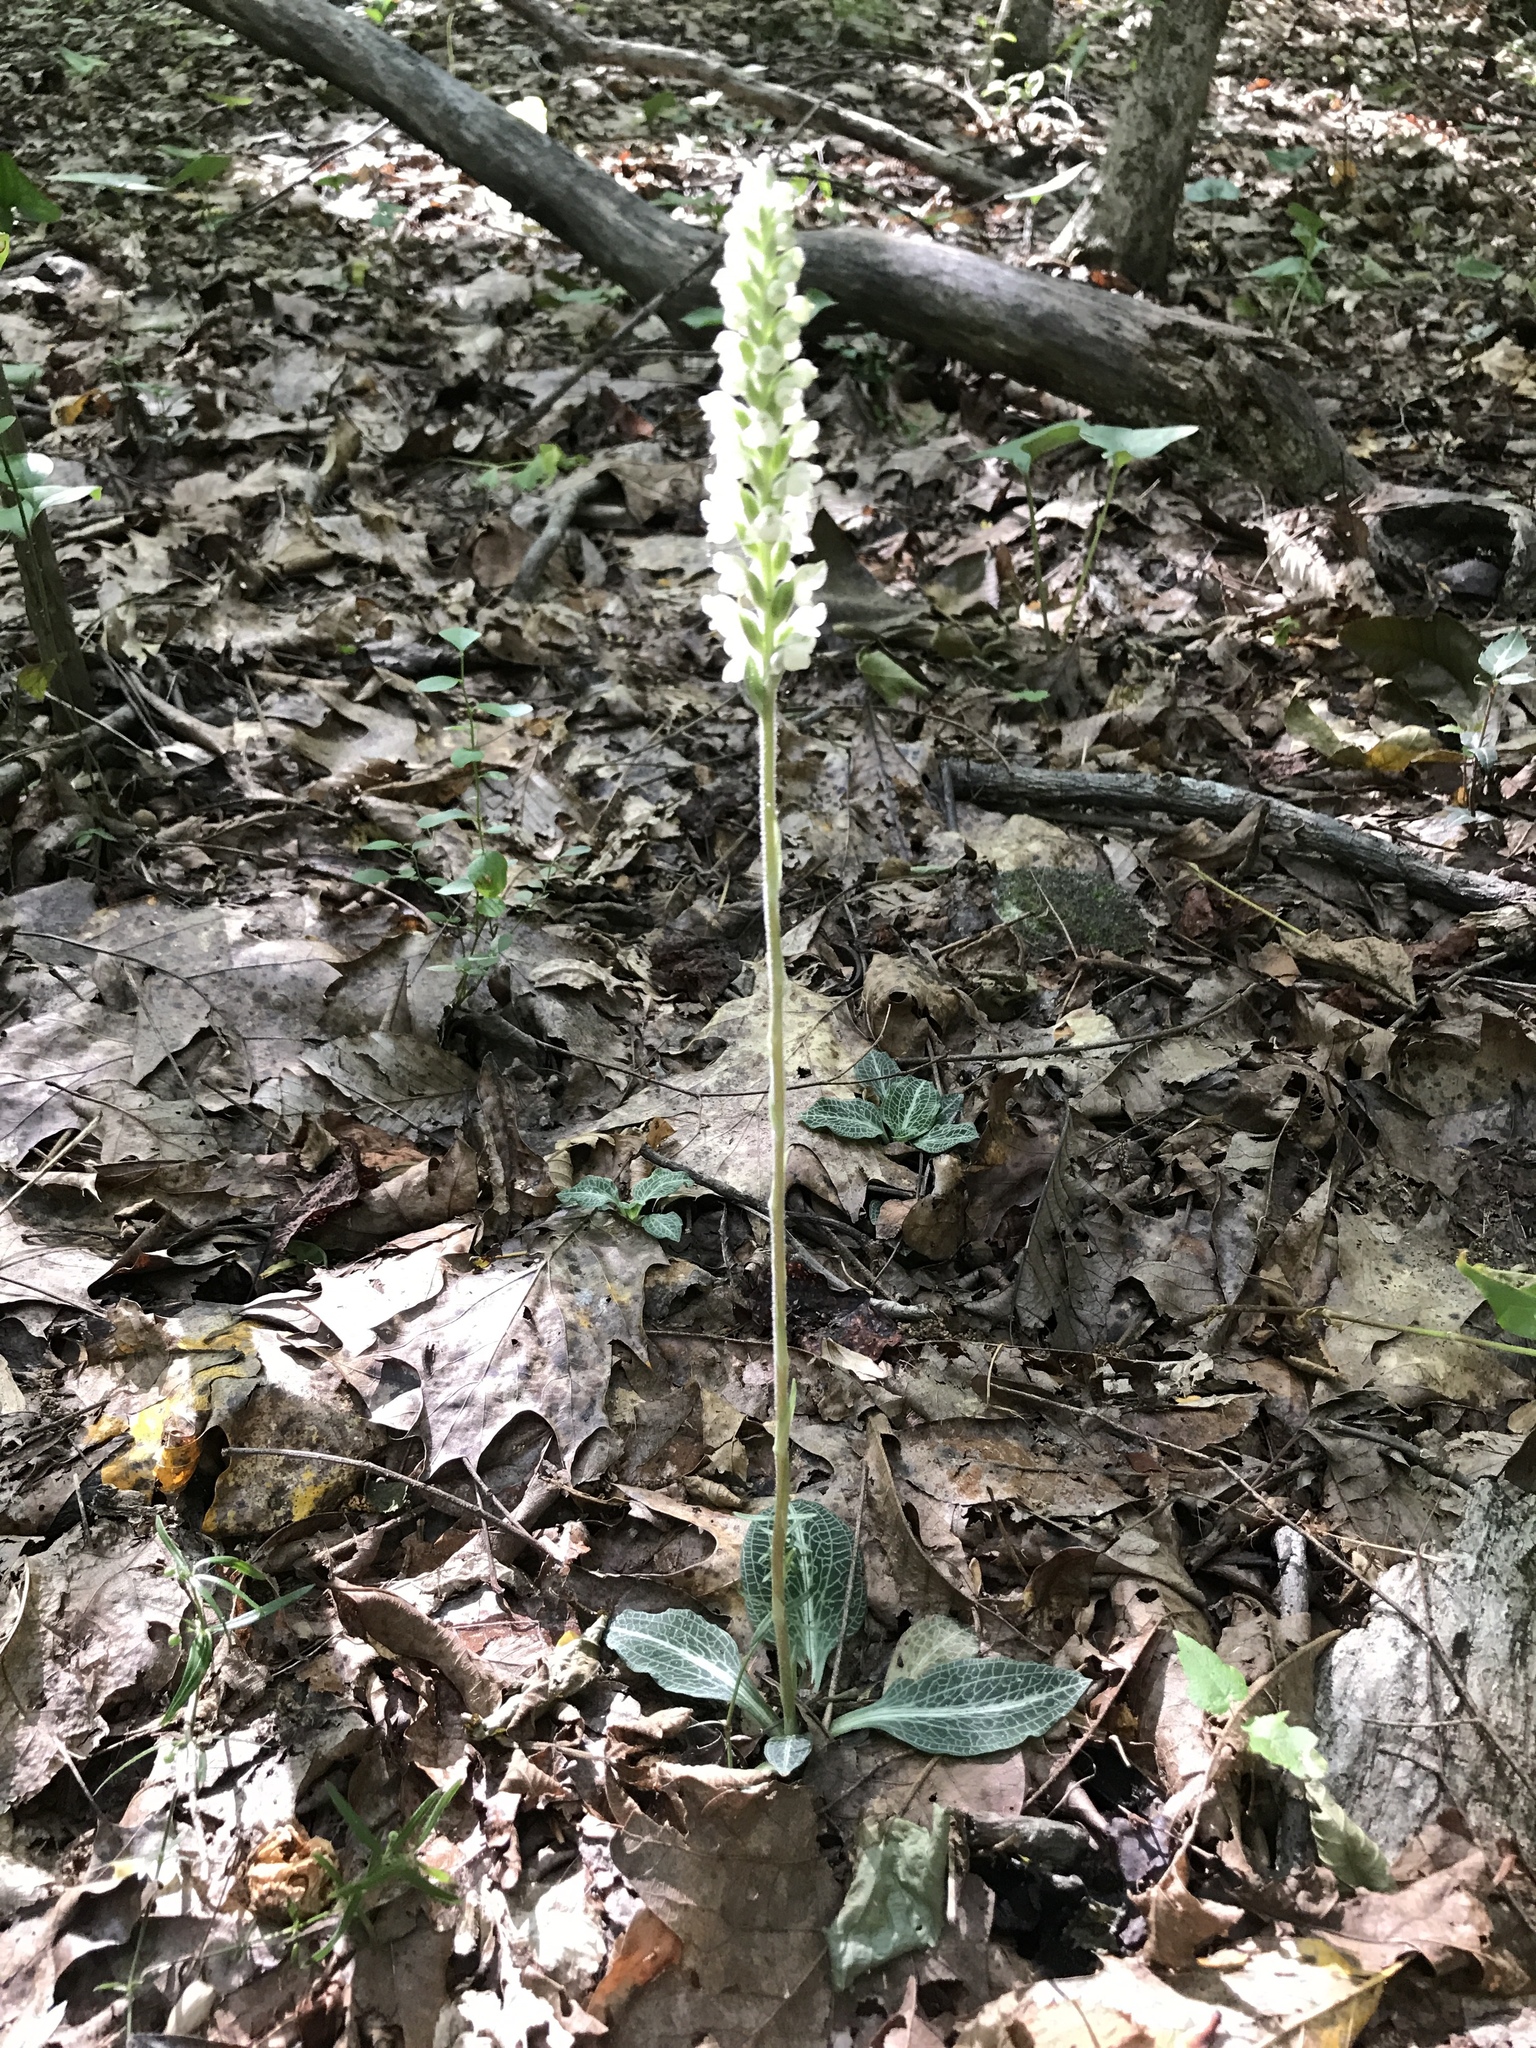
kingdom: Plantae
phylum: Tracheophyta
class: Liliopsida
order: Asparagales
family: Orchidaceae
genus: Goodyera
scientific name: Goodyera pubescens
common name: Downy rattlesnake-plantain
